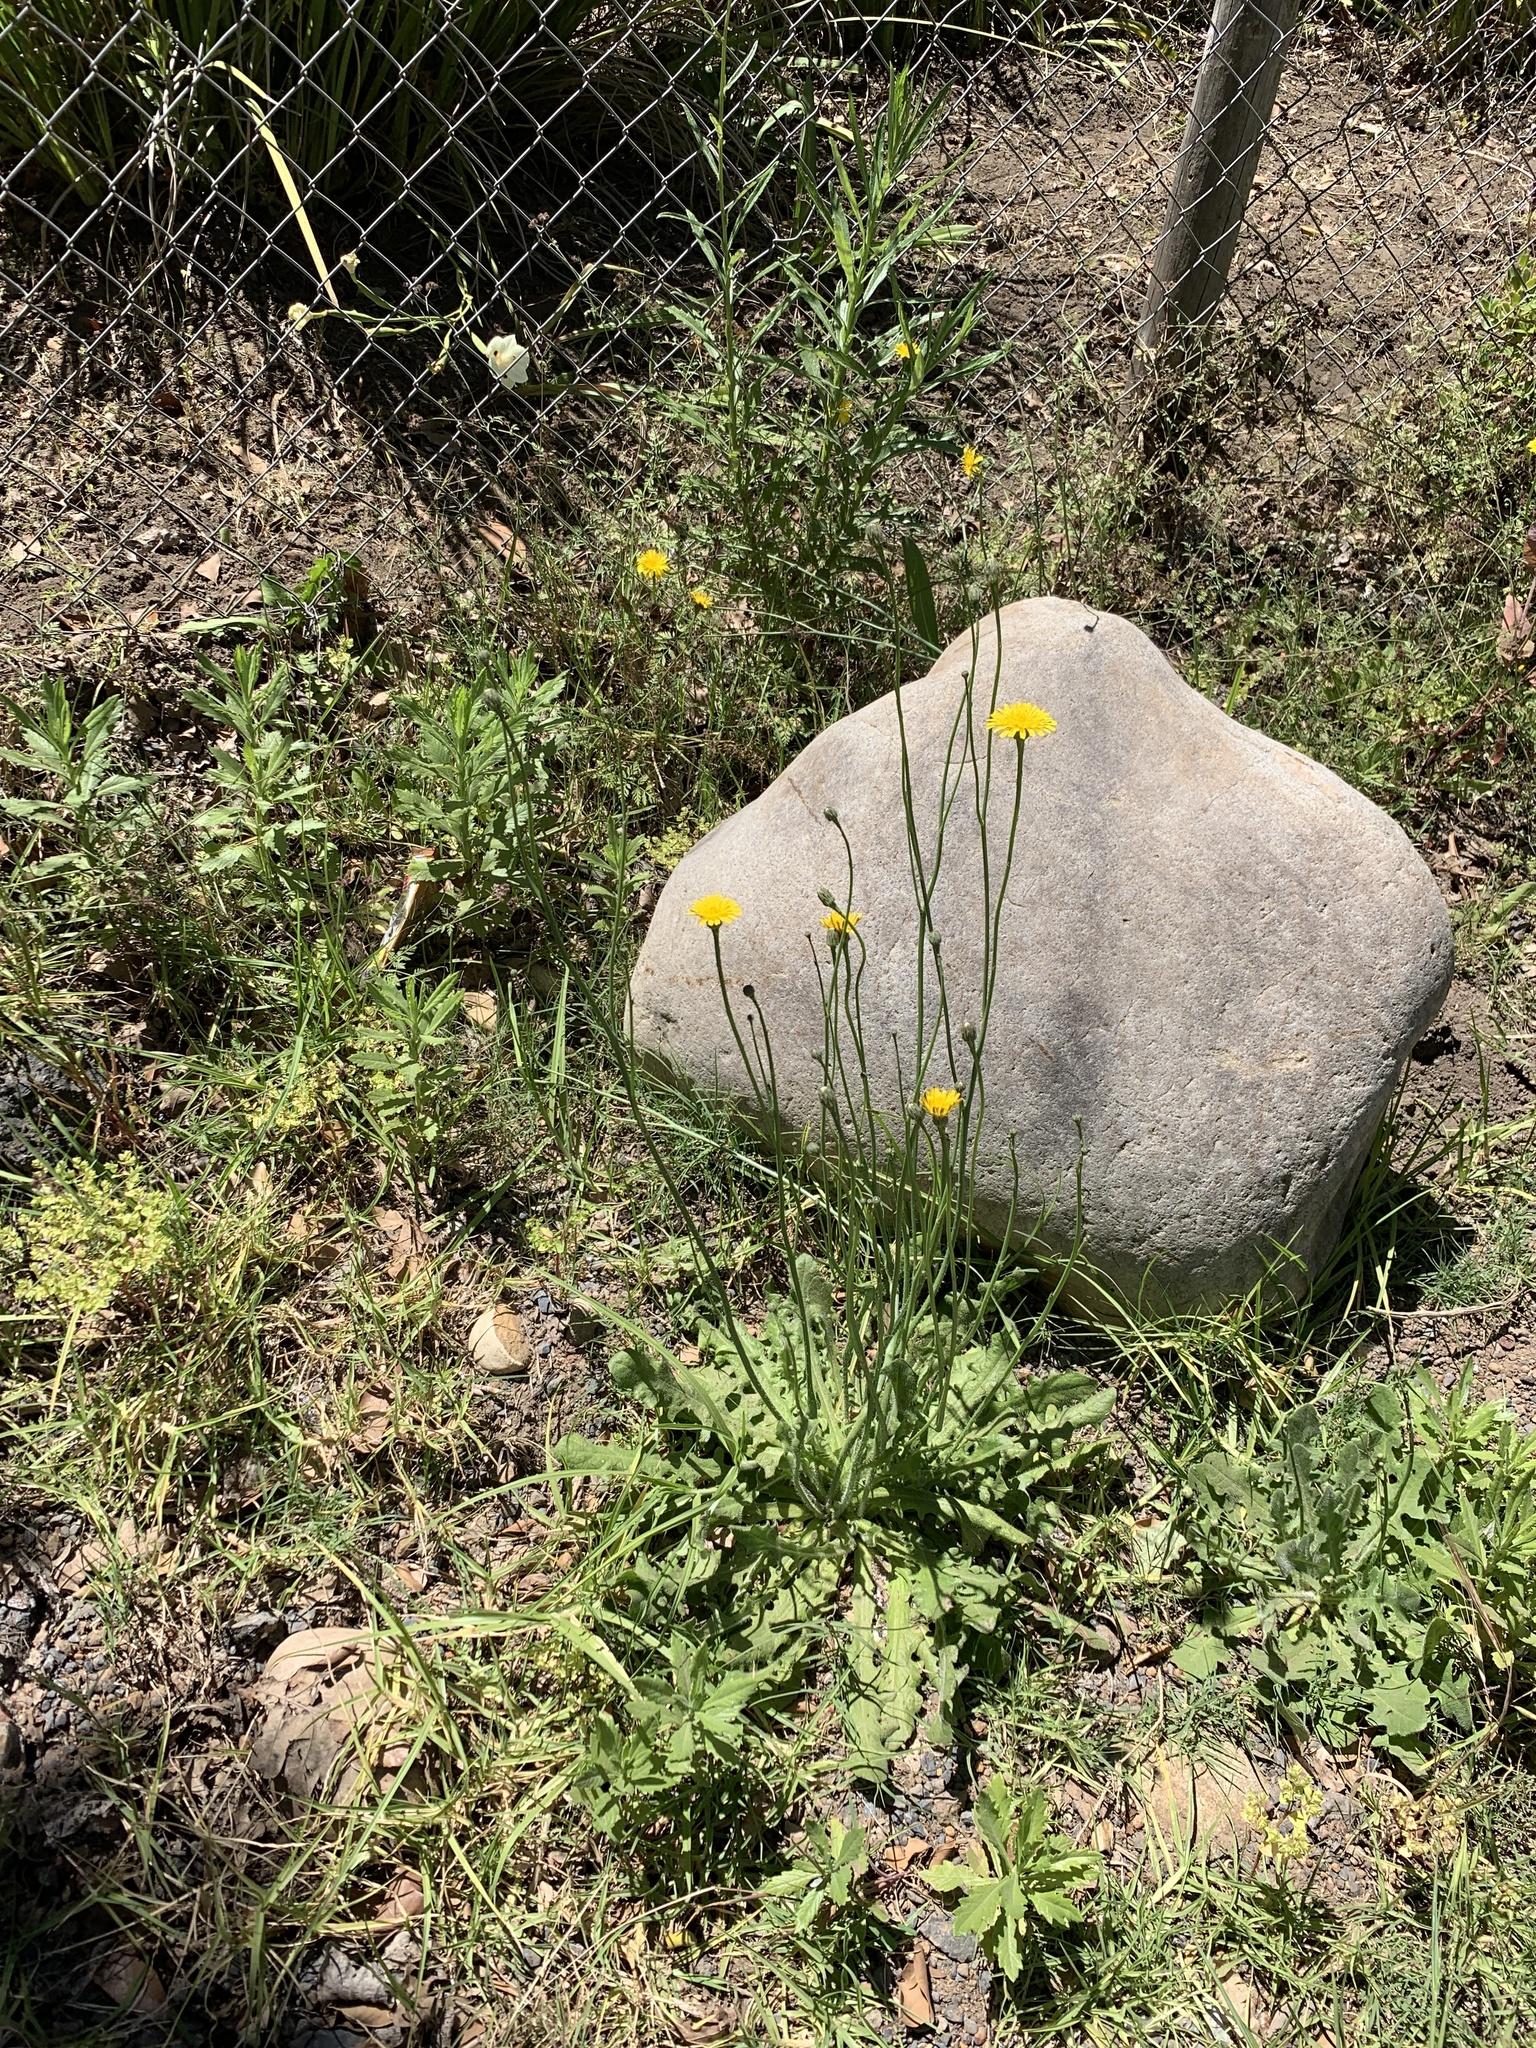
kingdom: Plantae
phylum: Tracheophyta
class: Magnoliopsida
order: Asterales
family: Asteraceae
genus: Hypochaeris
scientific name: Hypochaeris radicata
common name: Flatweed
